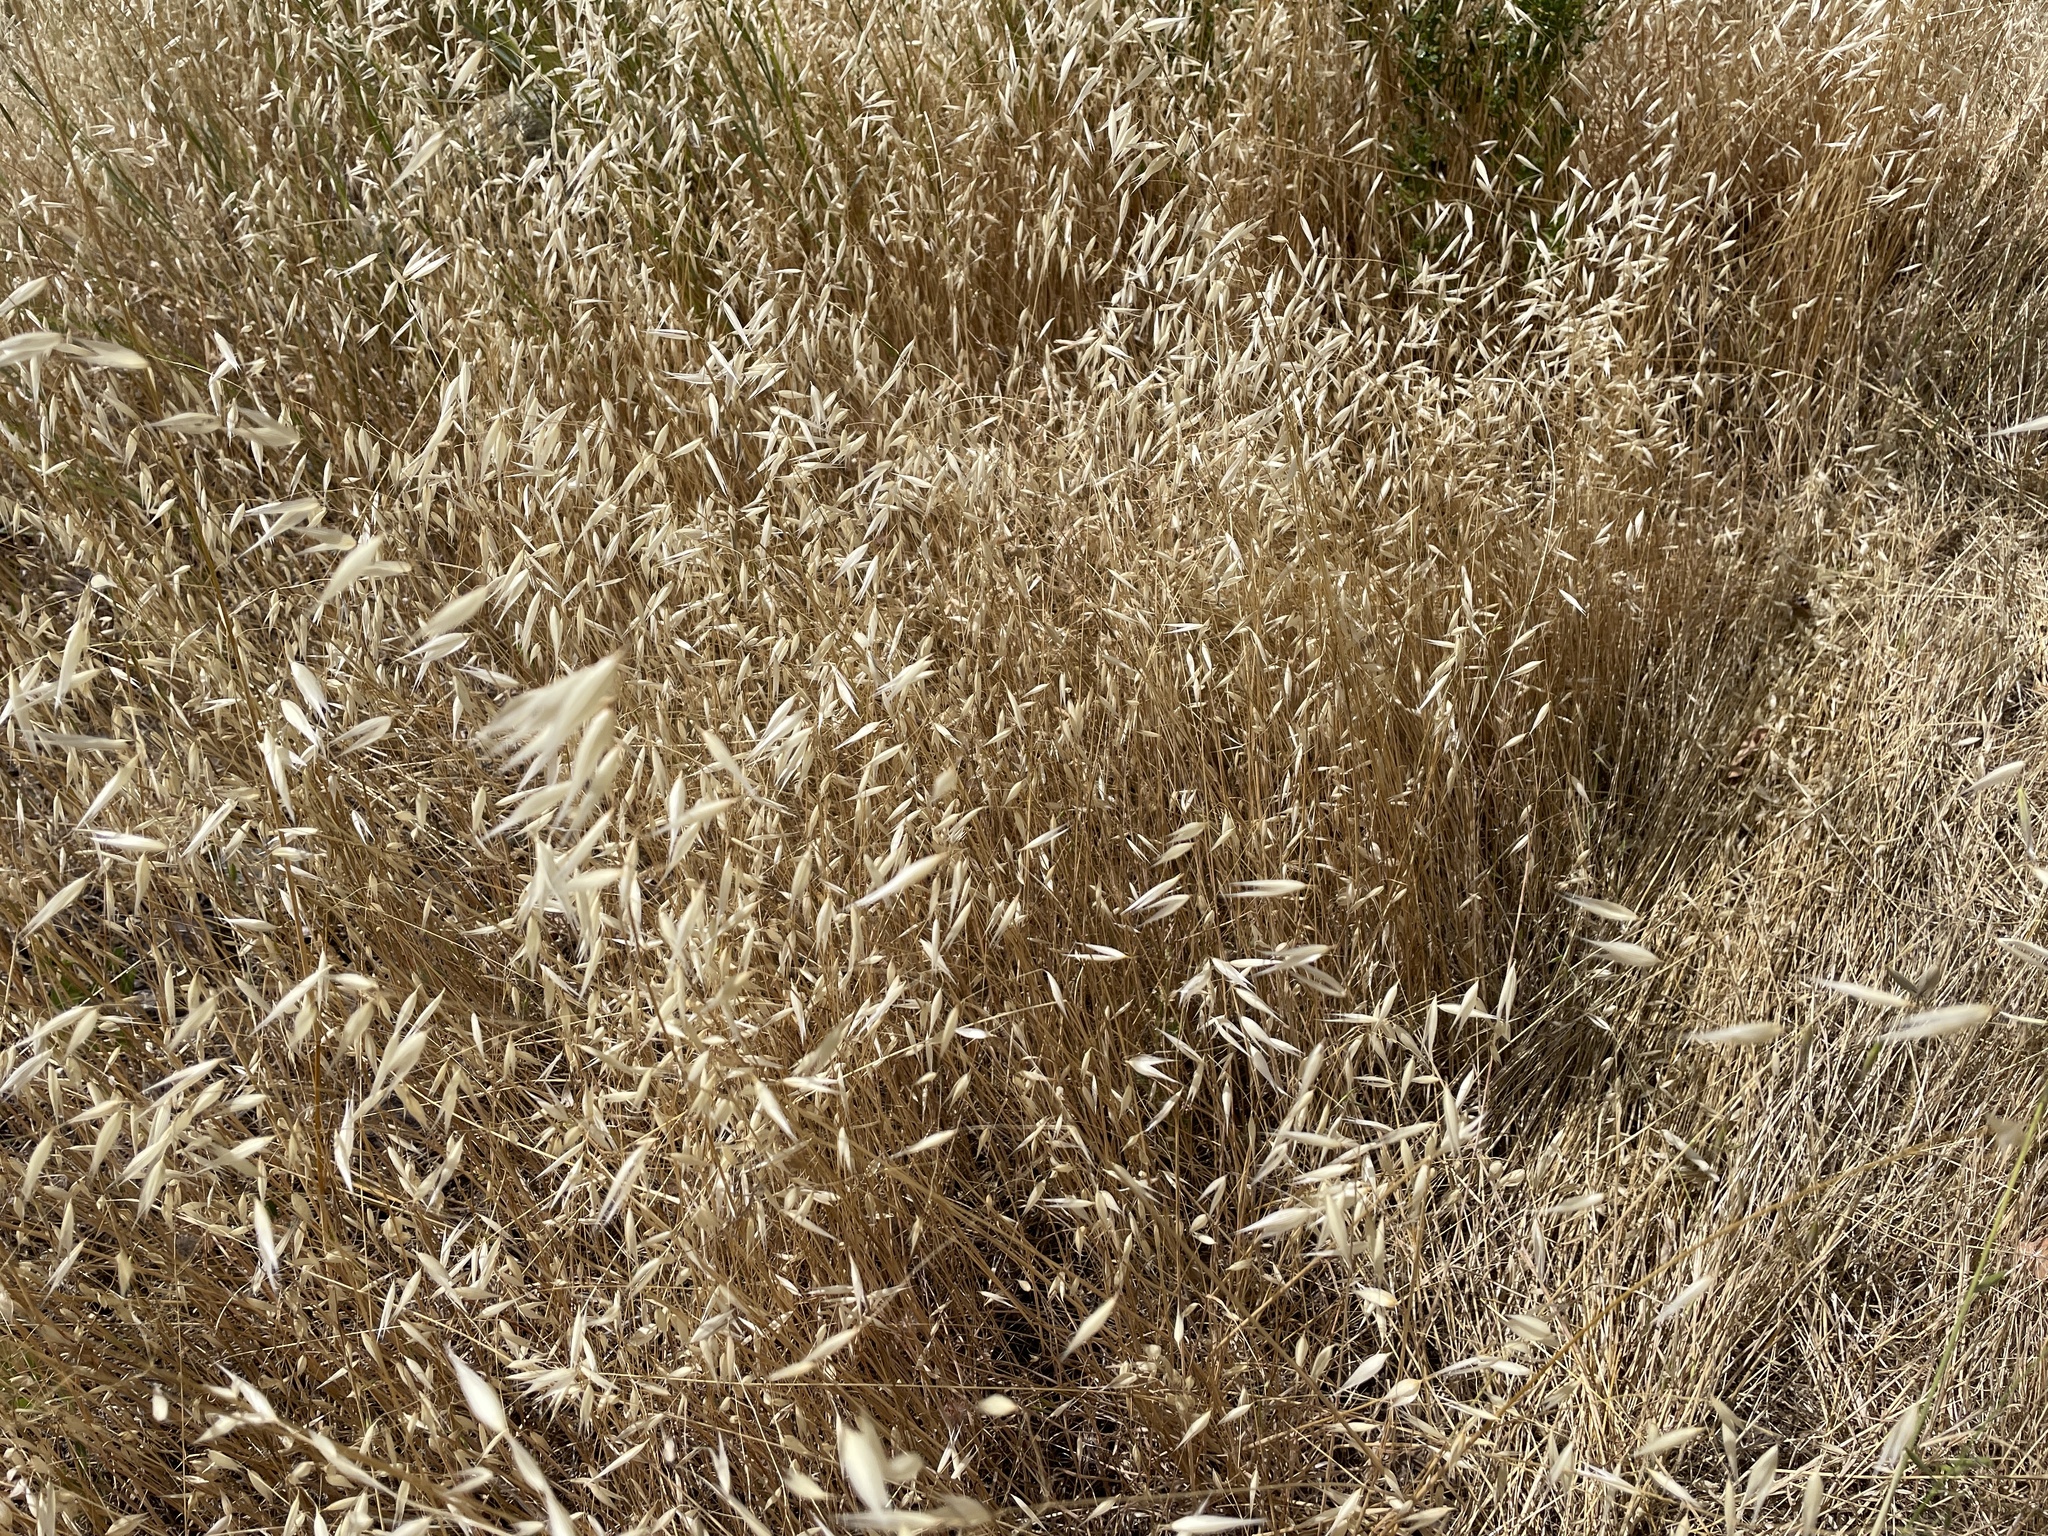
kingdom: Plantae
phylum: Tracheophyta
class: Liliopsida
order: Poales
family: Poaceae
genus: Avena
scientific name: Avena fatua
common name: Wild oat
